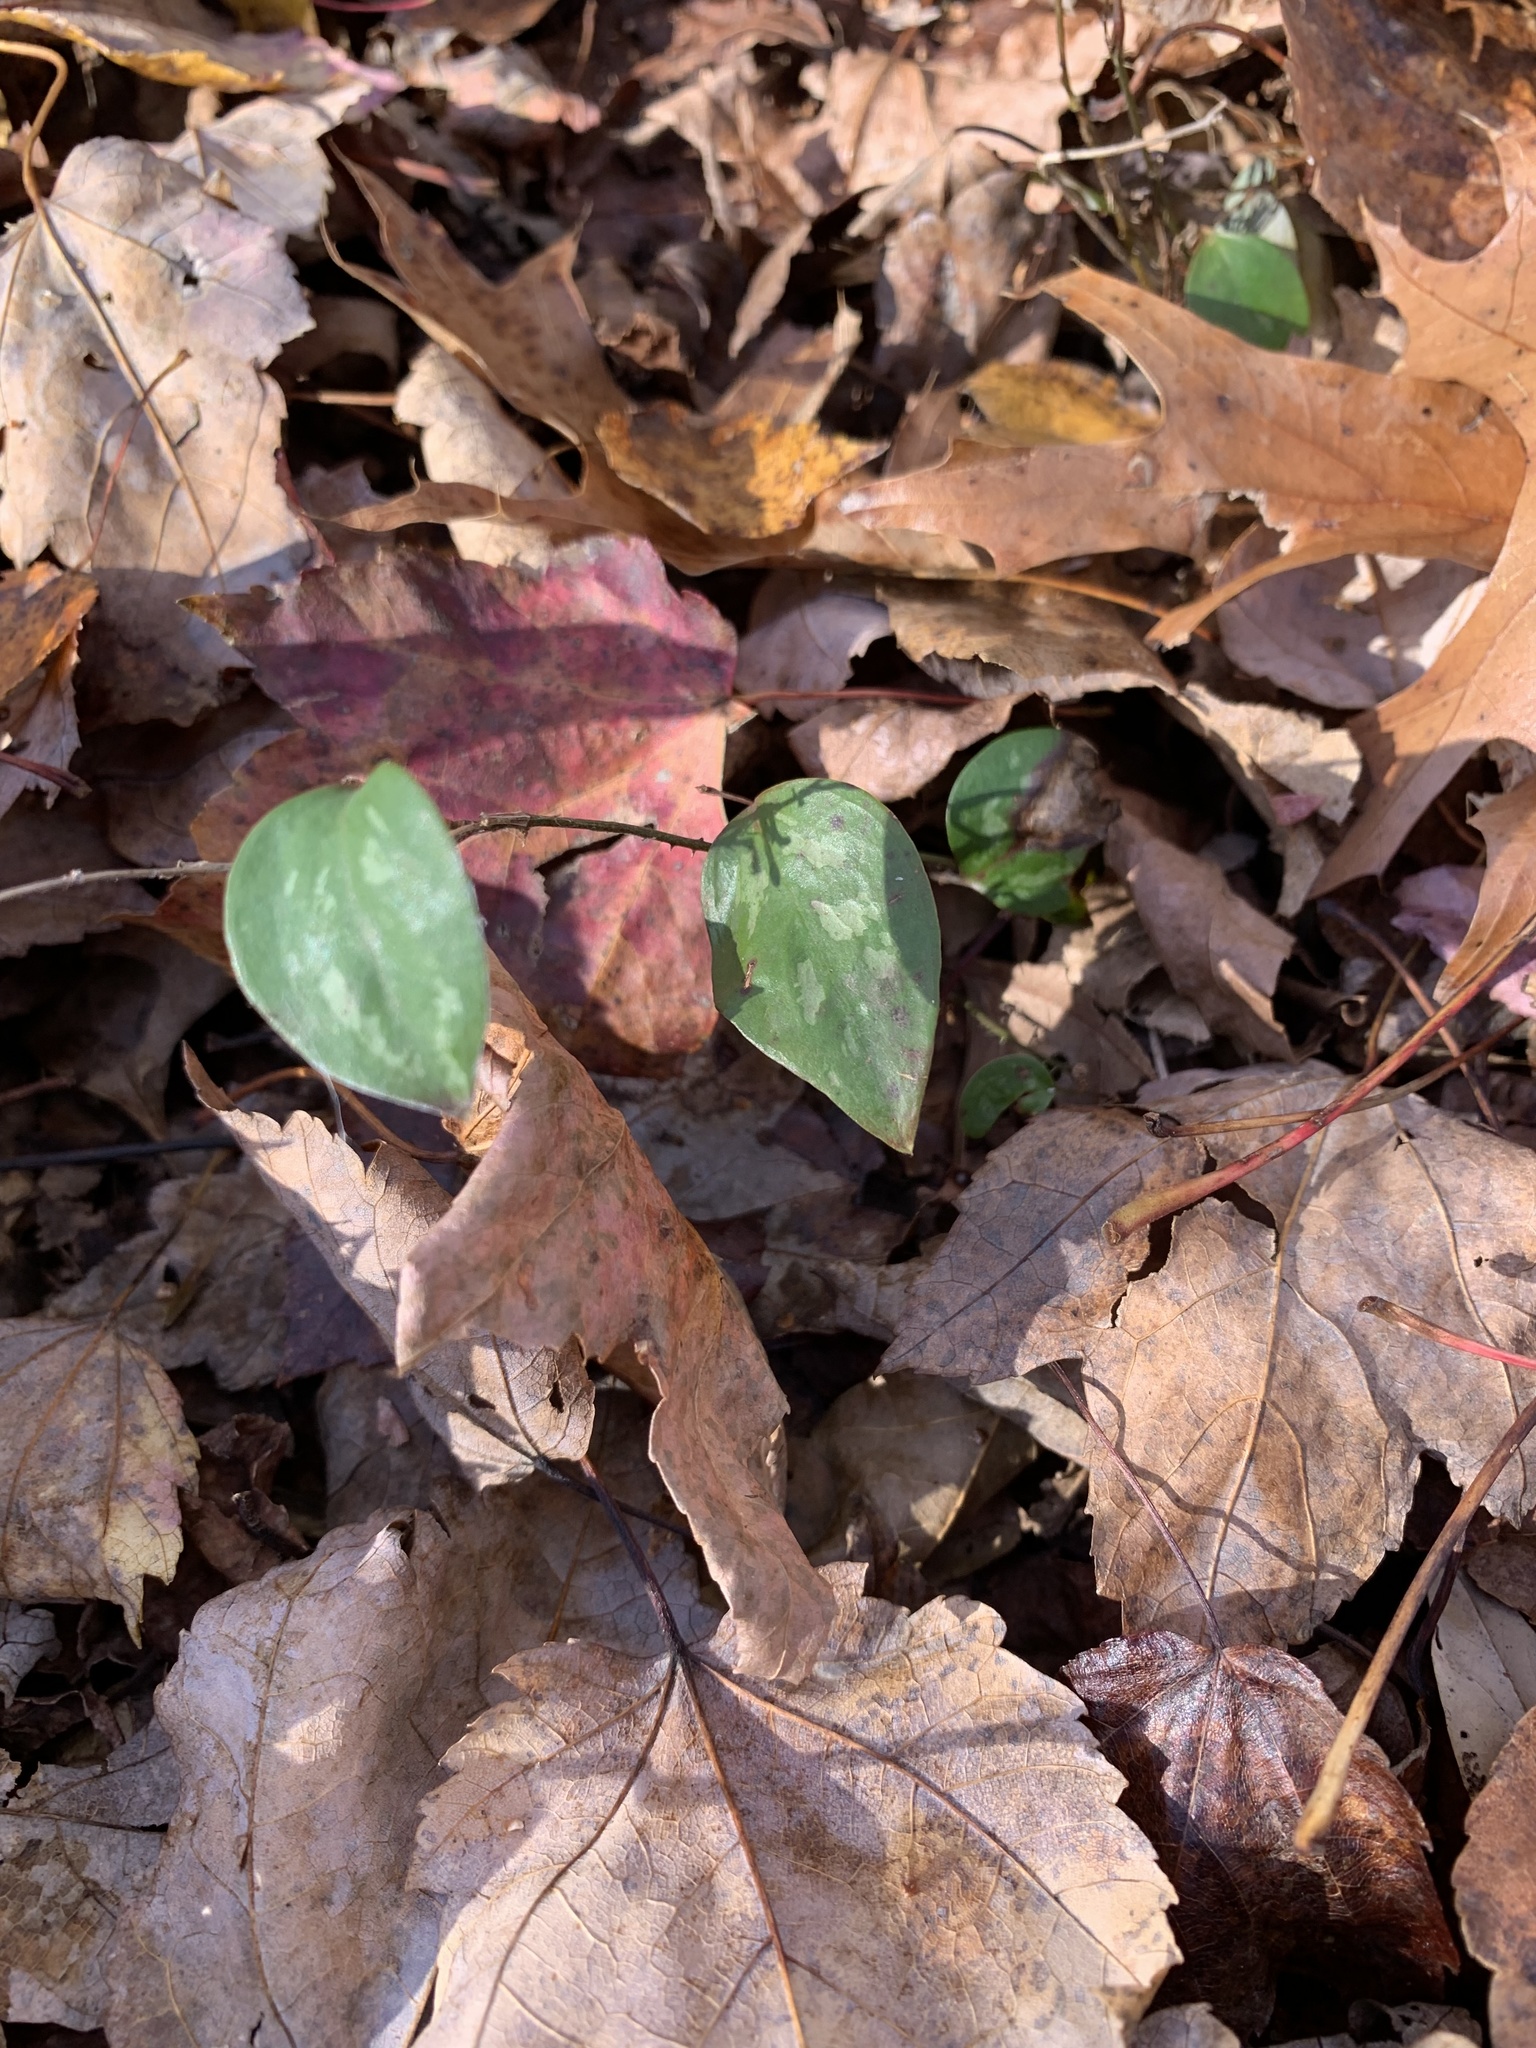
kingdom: Plantae
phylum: Tracheophyta
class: Liliopsida
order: Liliales
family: Smilacaceae
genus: Smilax
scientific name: Smilax glauca
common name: Cat greenbrier
